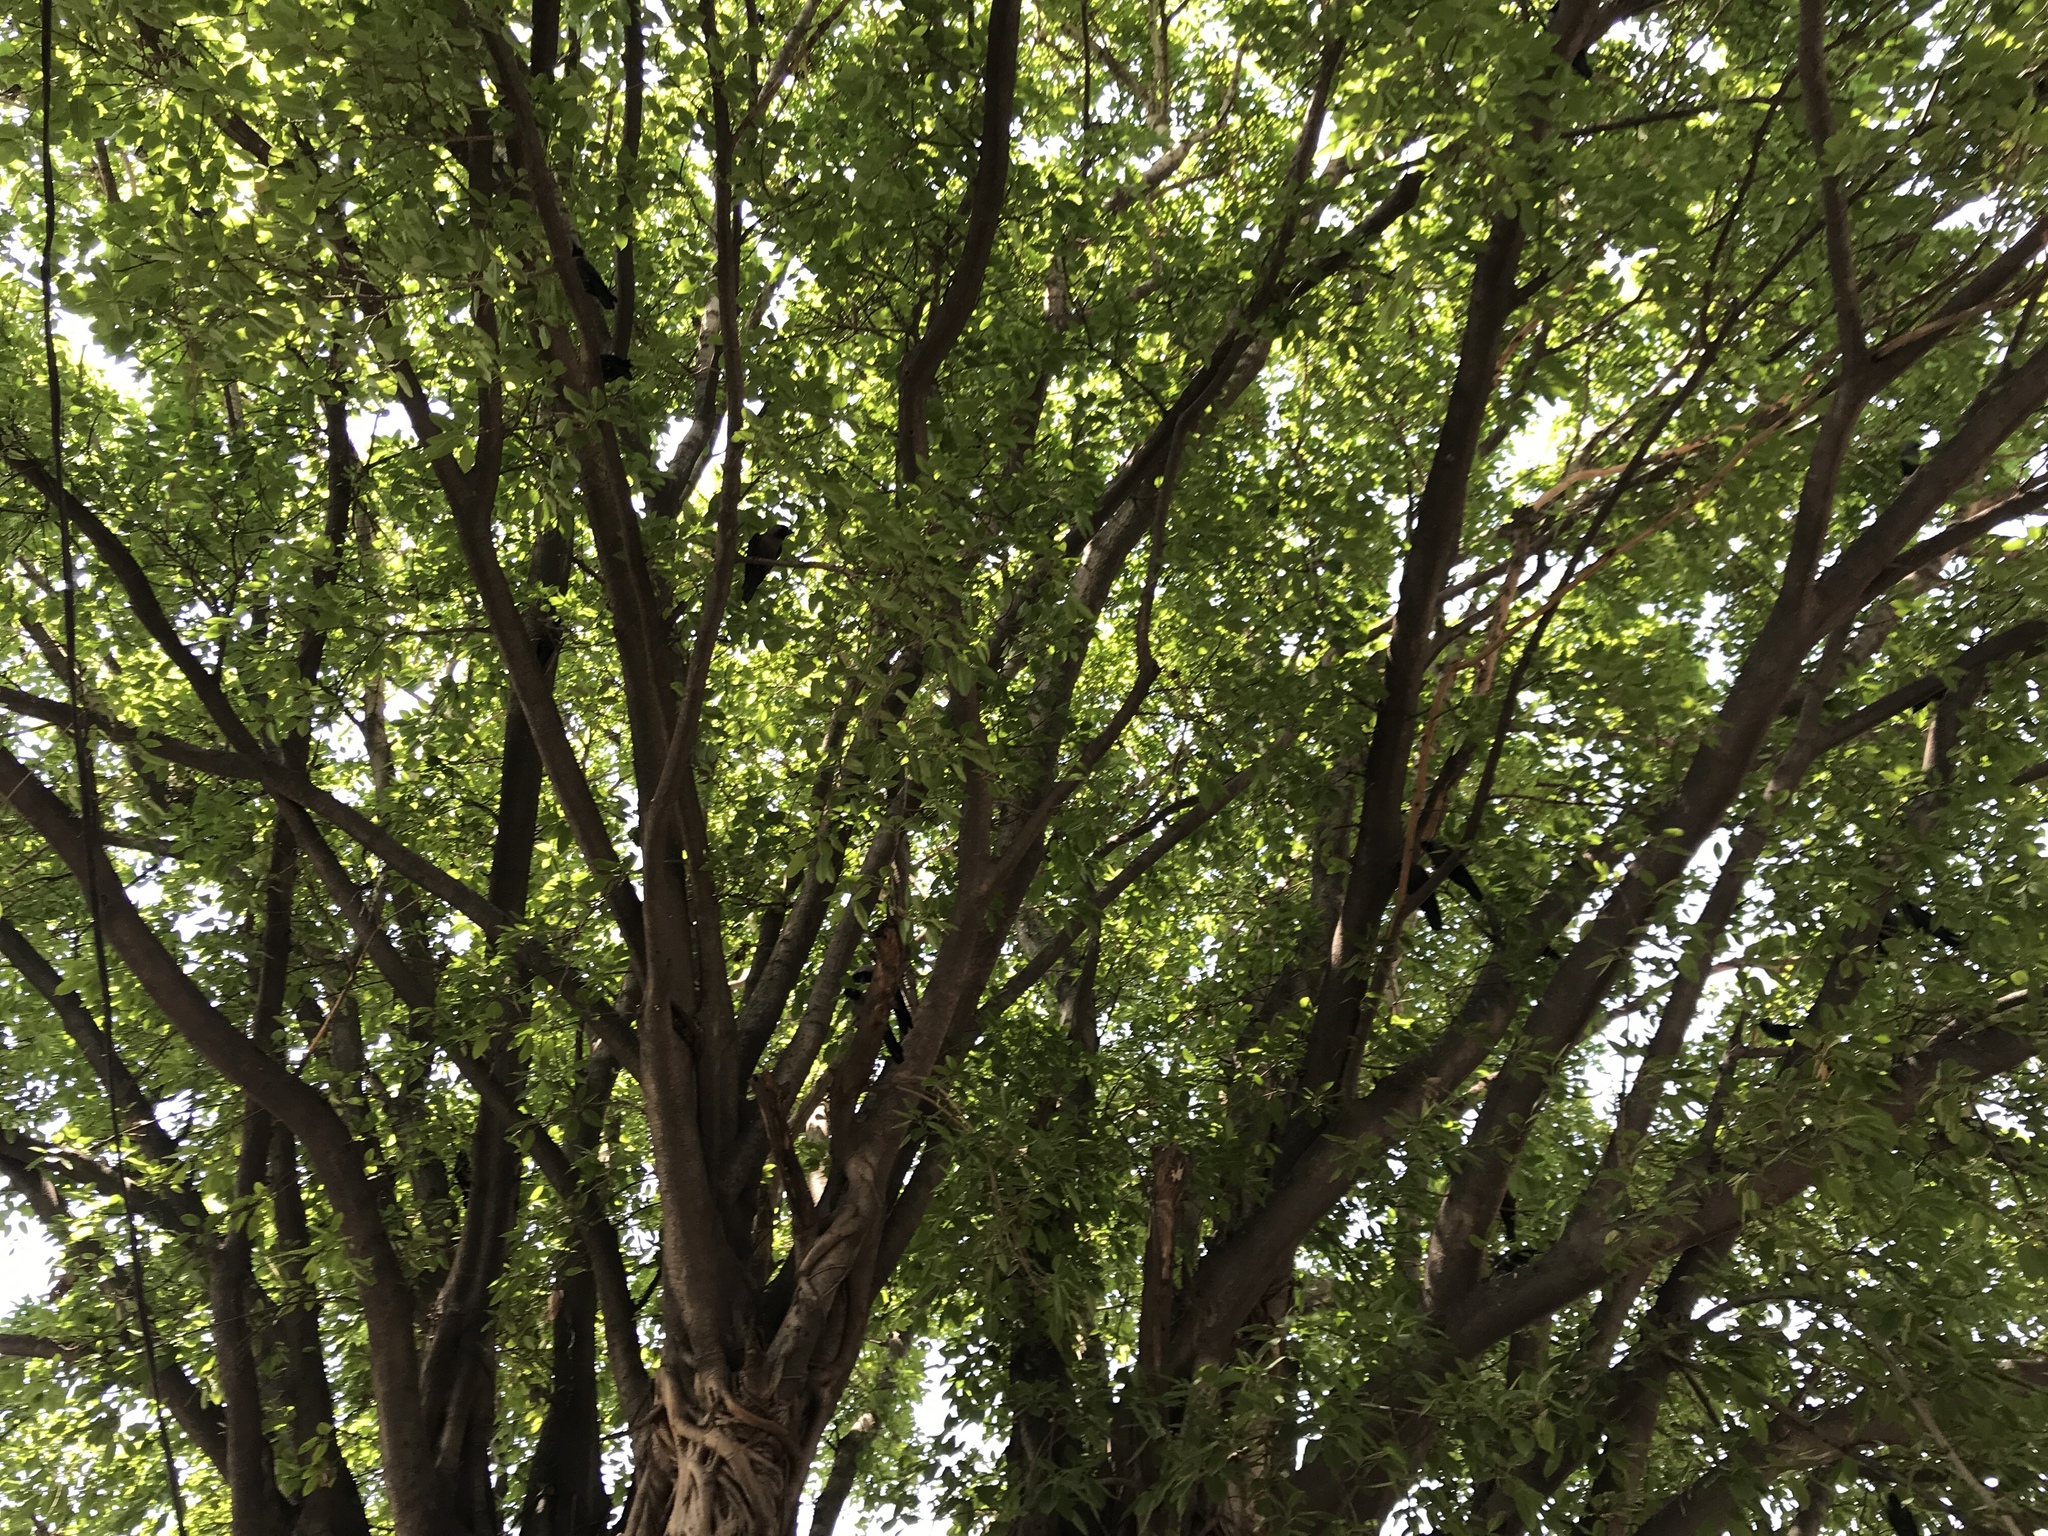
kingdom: Animalia
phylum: Chordata
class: Aves
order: Passeriformes
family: Corvidae
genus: Corvus
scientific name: Corvus splendens
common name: House crow
